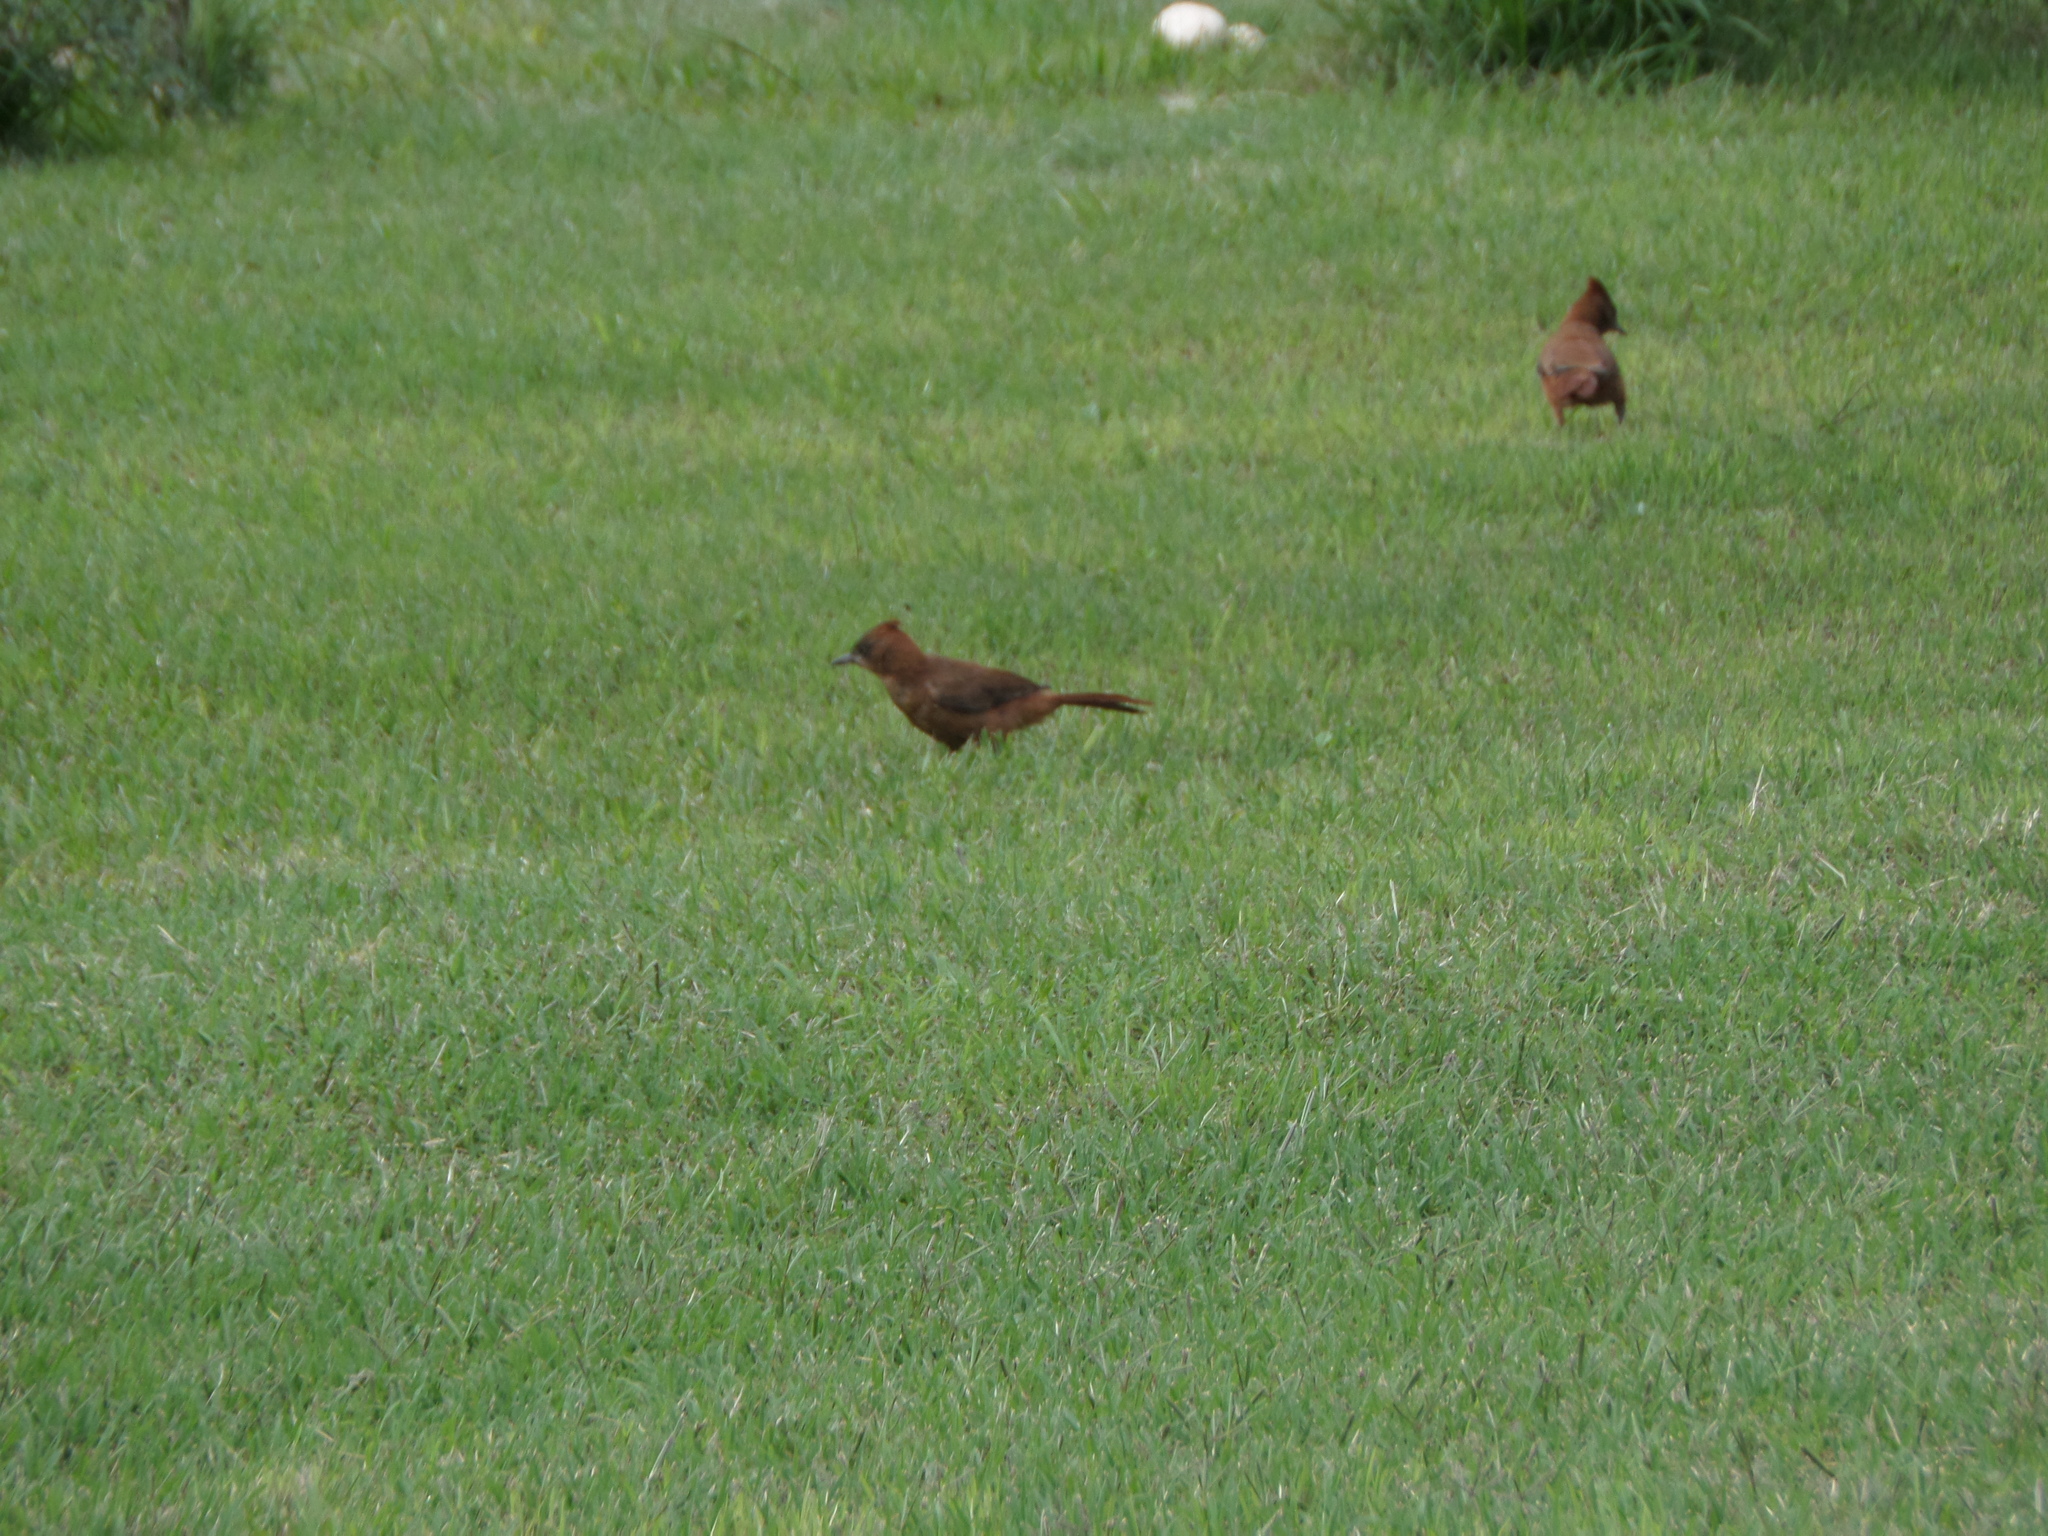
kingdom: Animalia
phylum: Chordata
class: Aves
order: Passeriformes
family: Furnariidae
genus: Pseudoseisura
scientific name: Pseudoseisura lophotes
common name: Brown cacholote
